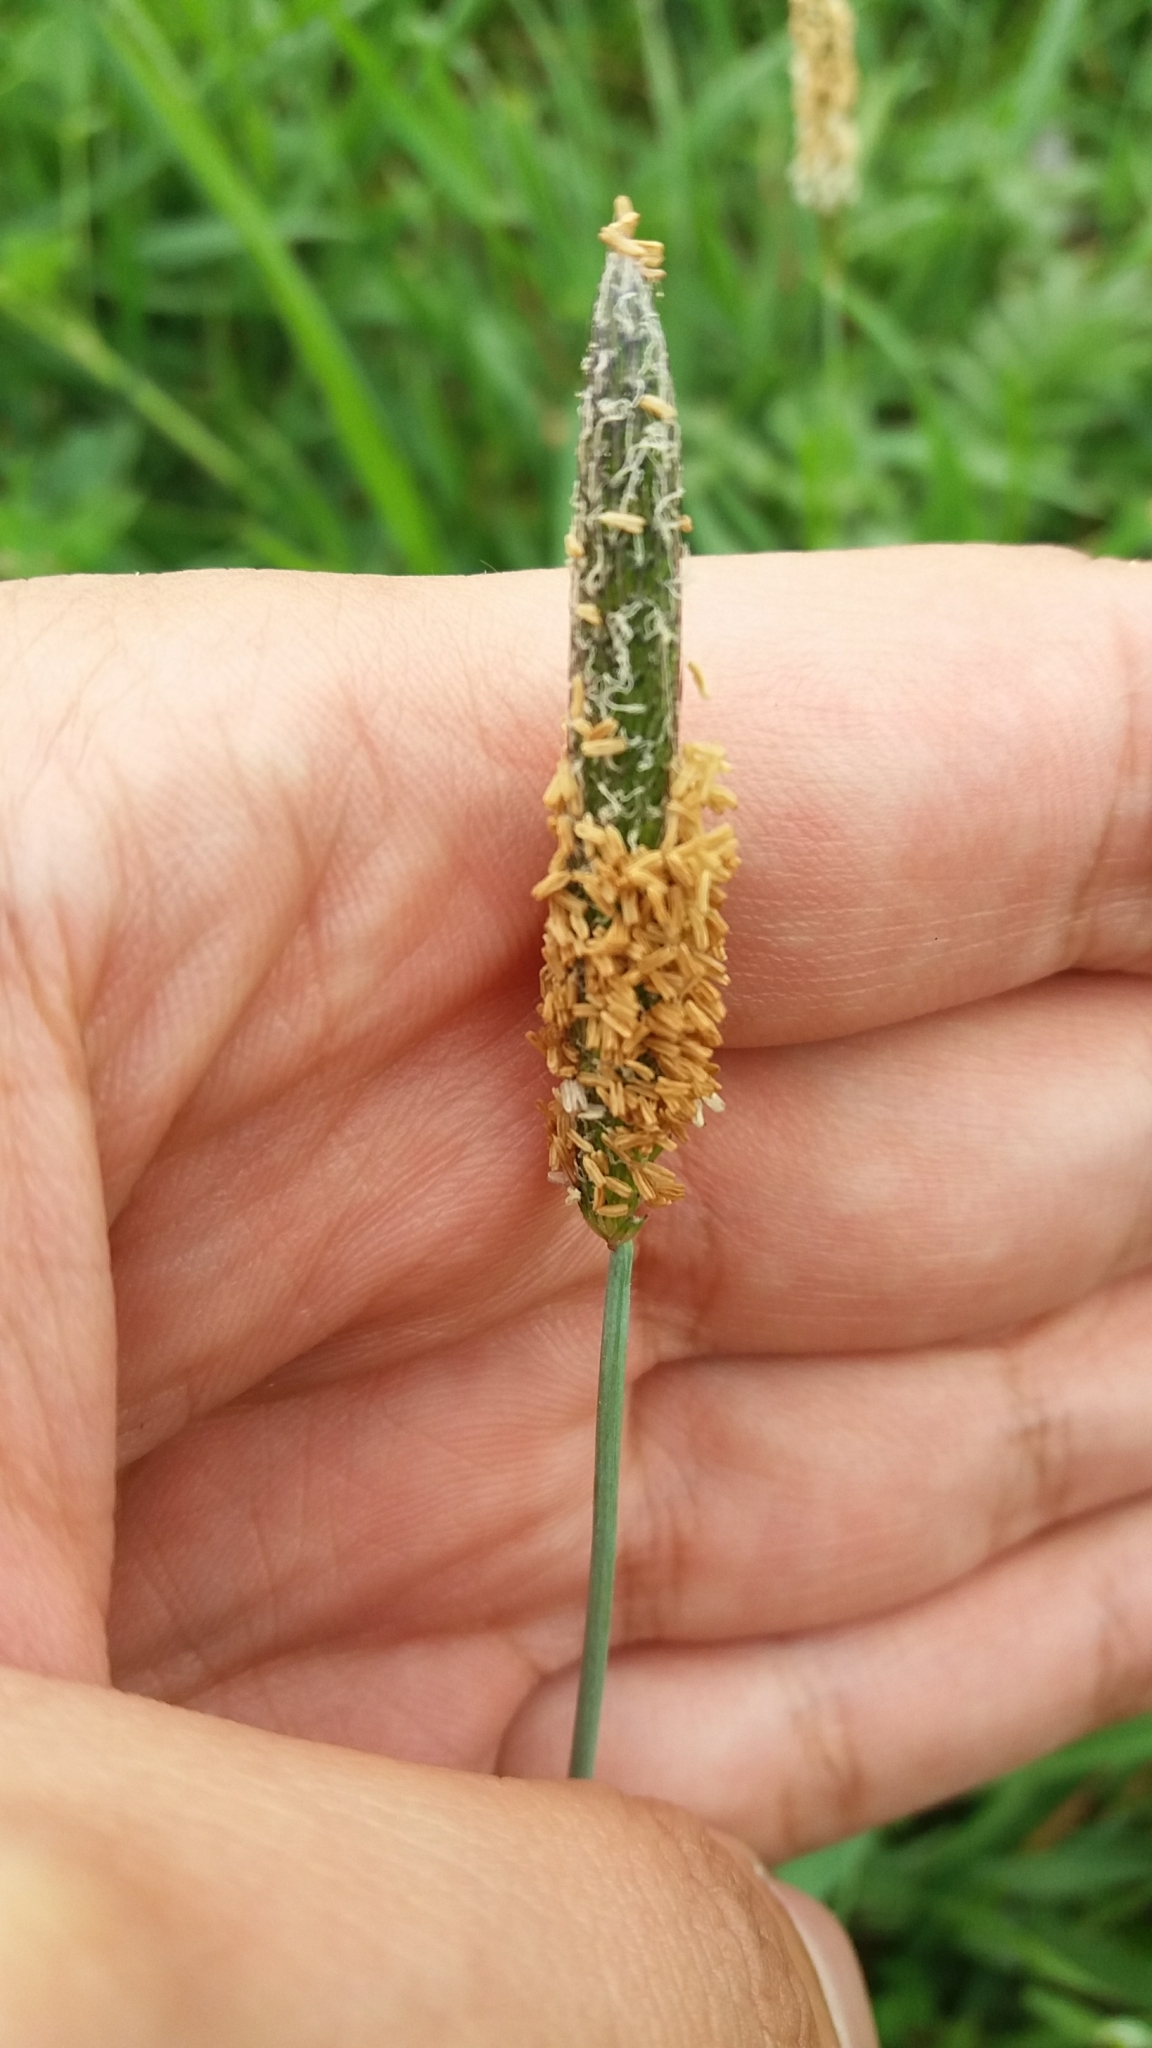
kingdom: Plantae
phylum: Tracheophyta
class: Liliopsida
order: Poales
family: Poaceae
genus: Alopecurus
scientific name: Alopecurus geniculatus
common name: Water foxtail
